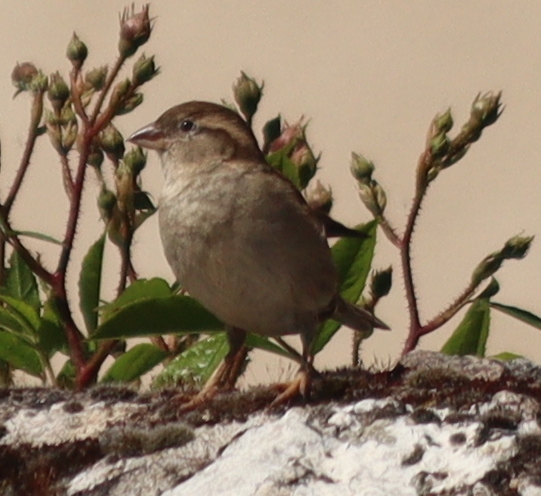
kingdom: Animalia
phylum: Chordata
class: Aves
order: Passeriformes
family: Passeridae
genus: Passer
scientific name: Passer domesticus
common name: House sparrow
